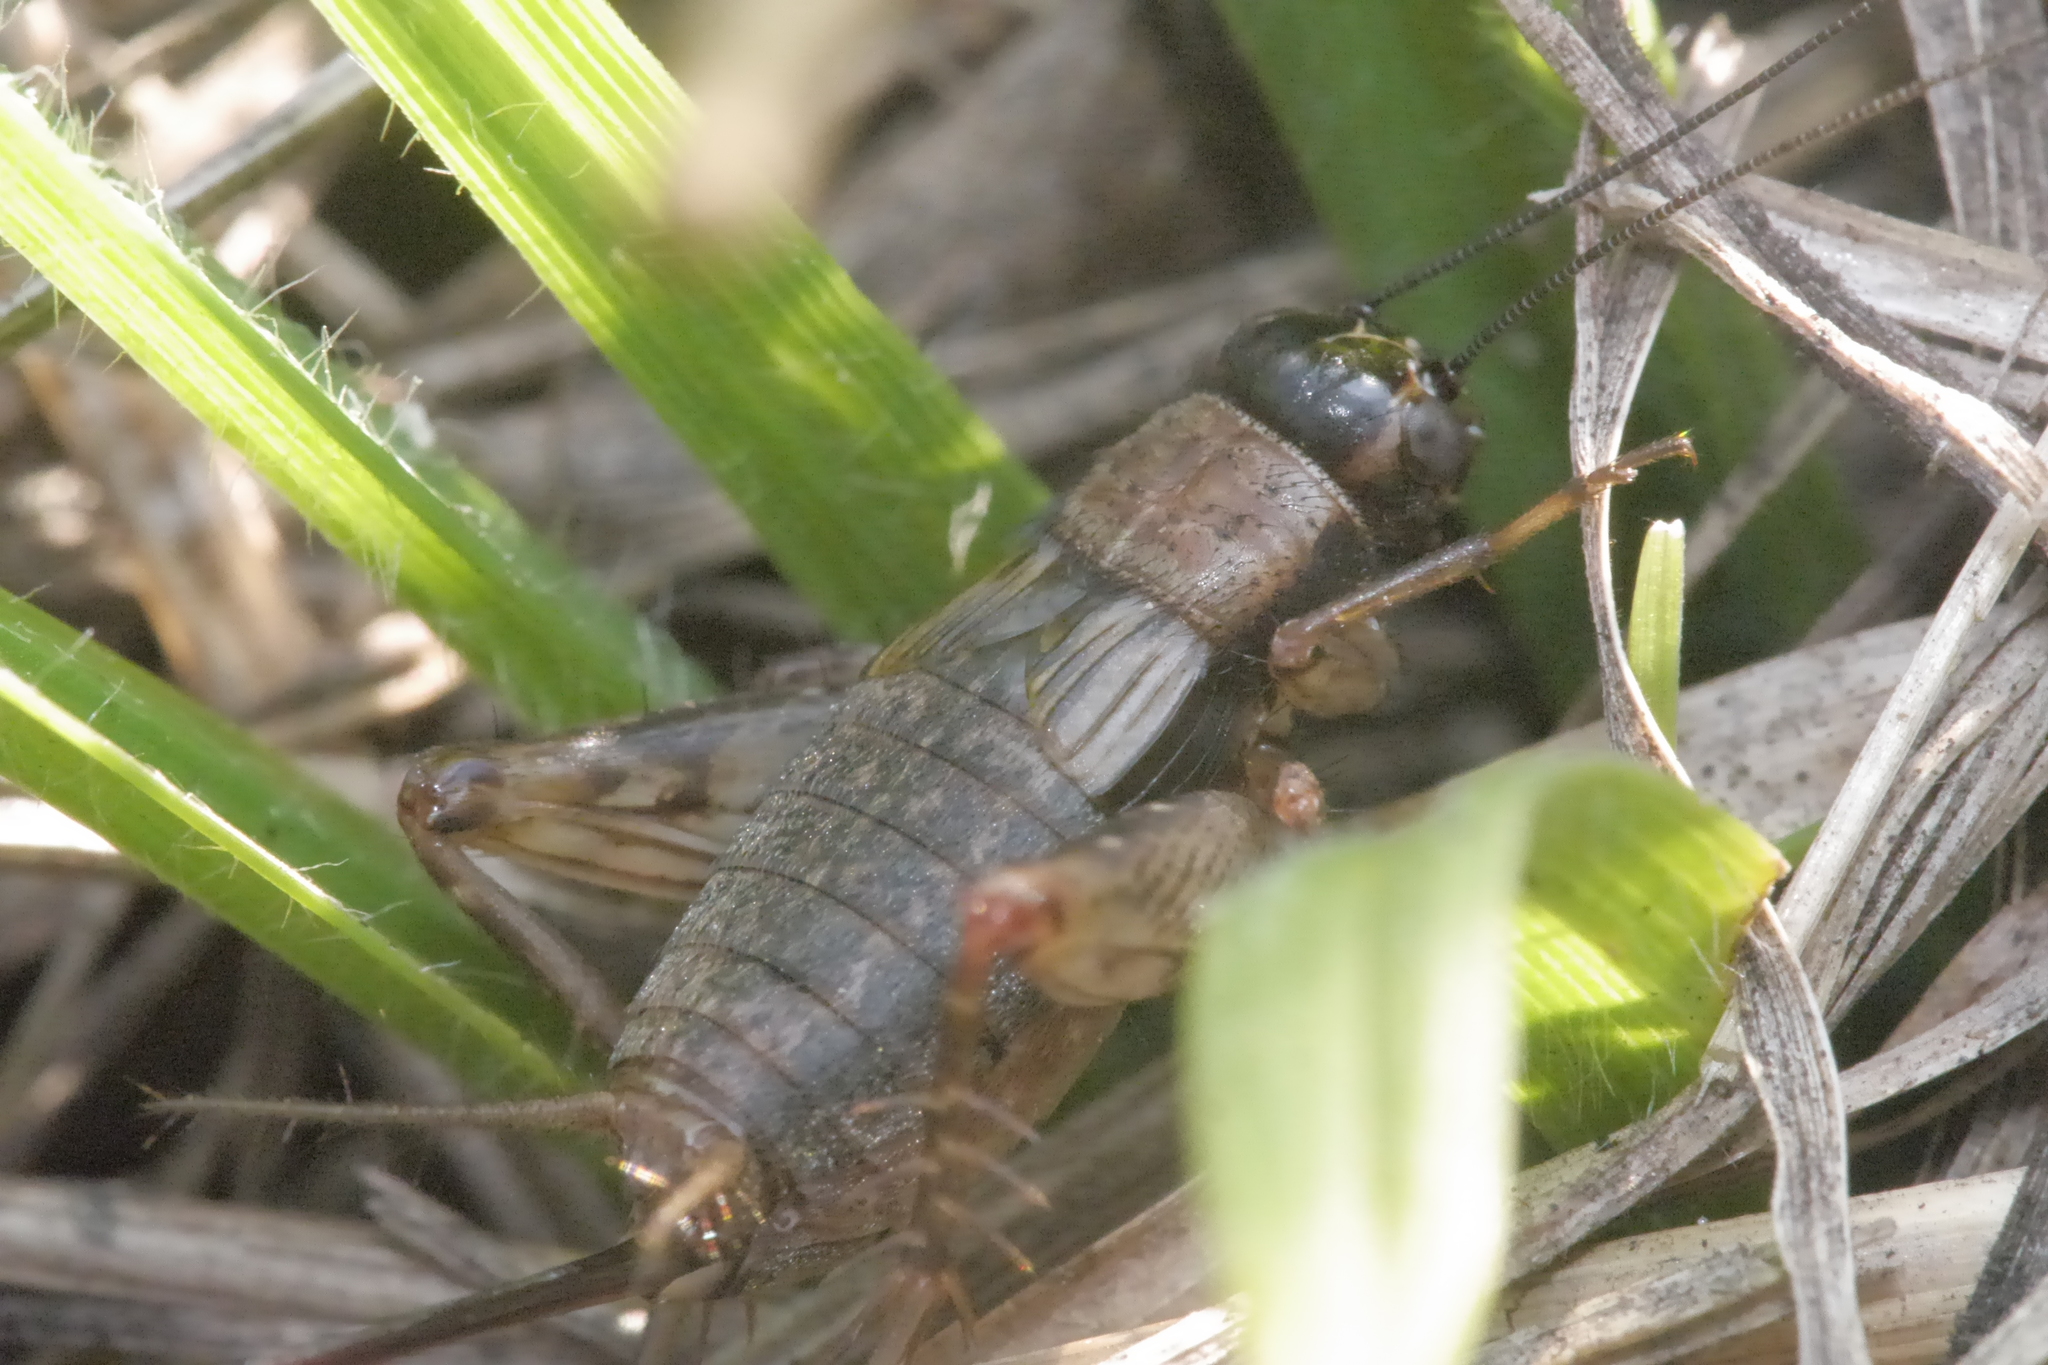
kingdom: Animalia
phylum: Arthropoda
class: Insecta
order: Orthoptera
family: Trigonidiidae
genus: Nemobius
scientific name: Nemobius sylvestris
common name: Wood-cricket
